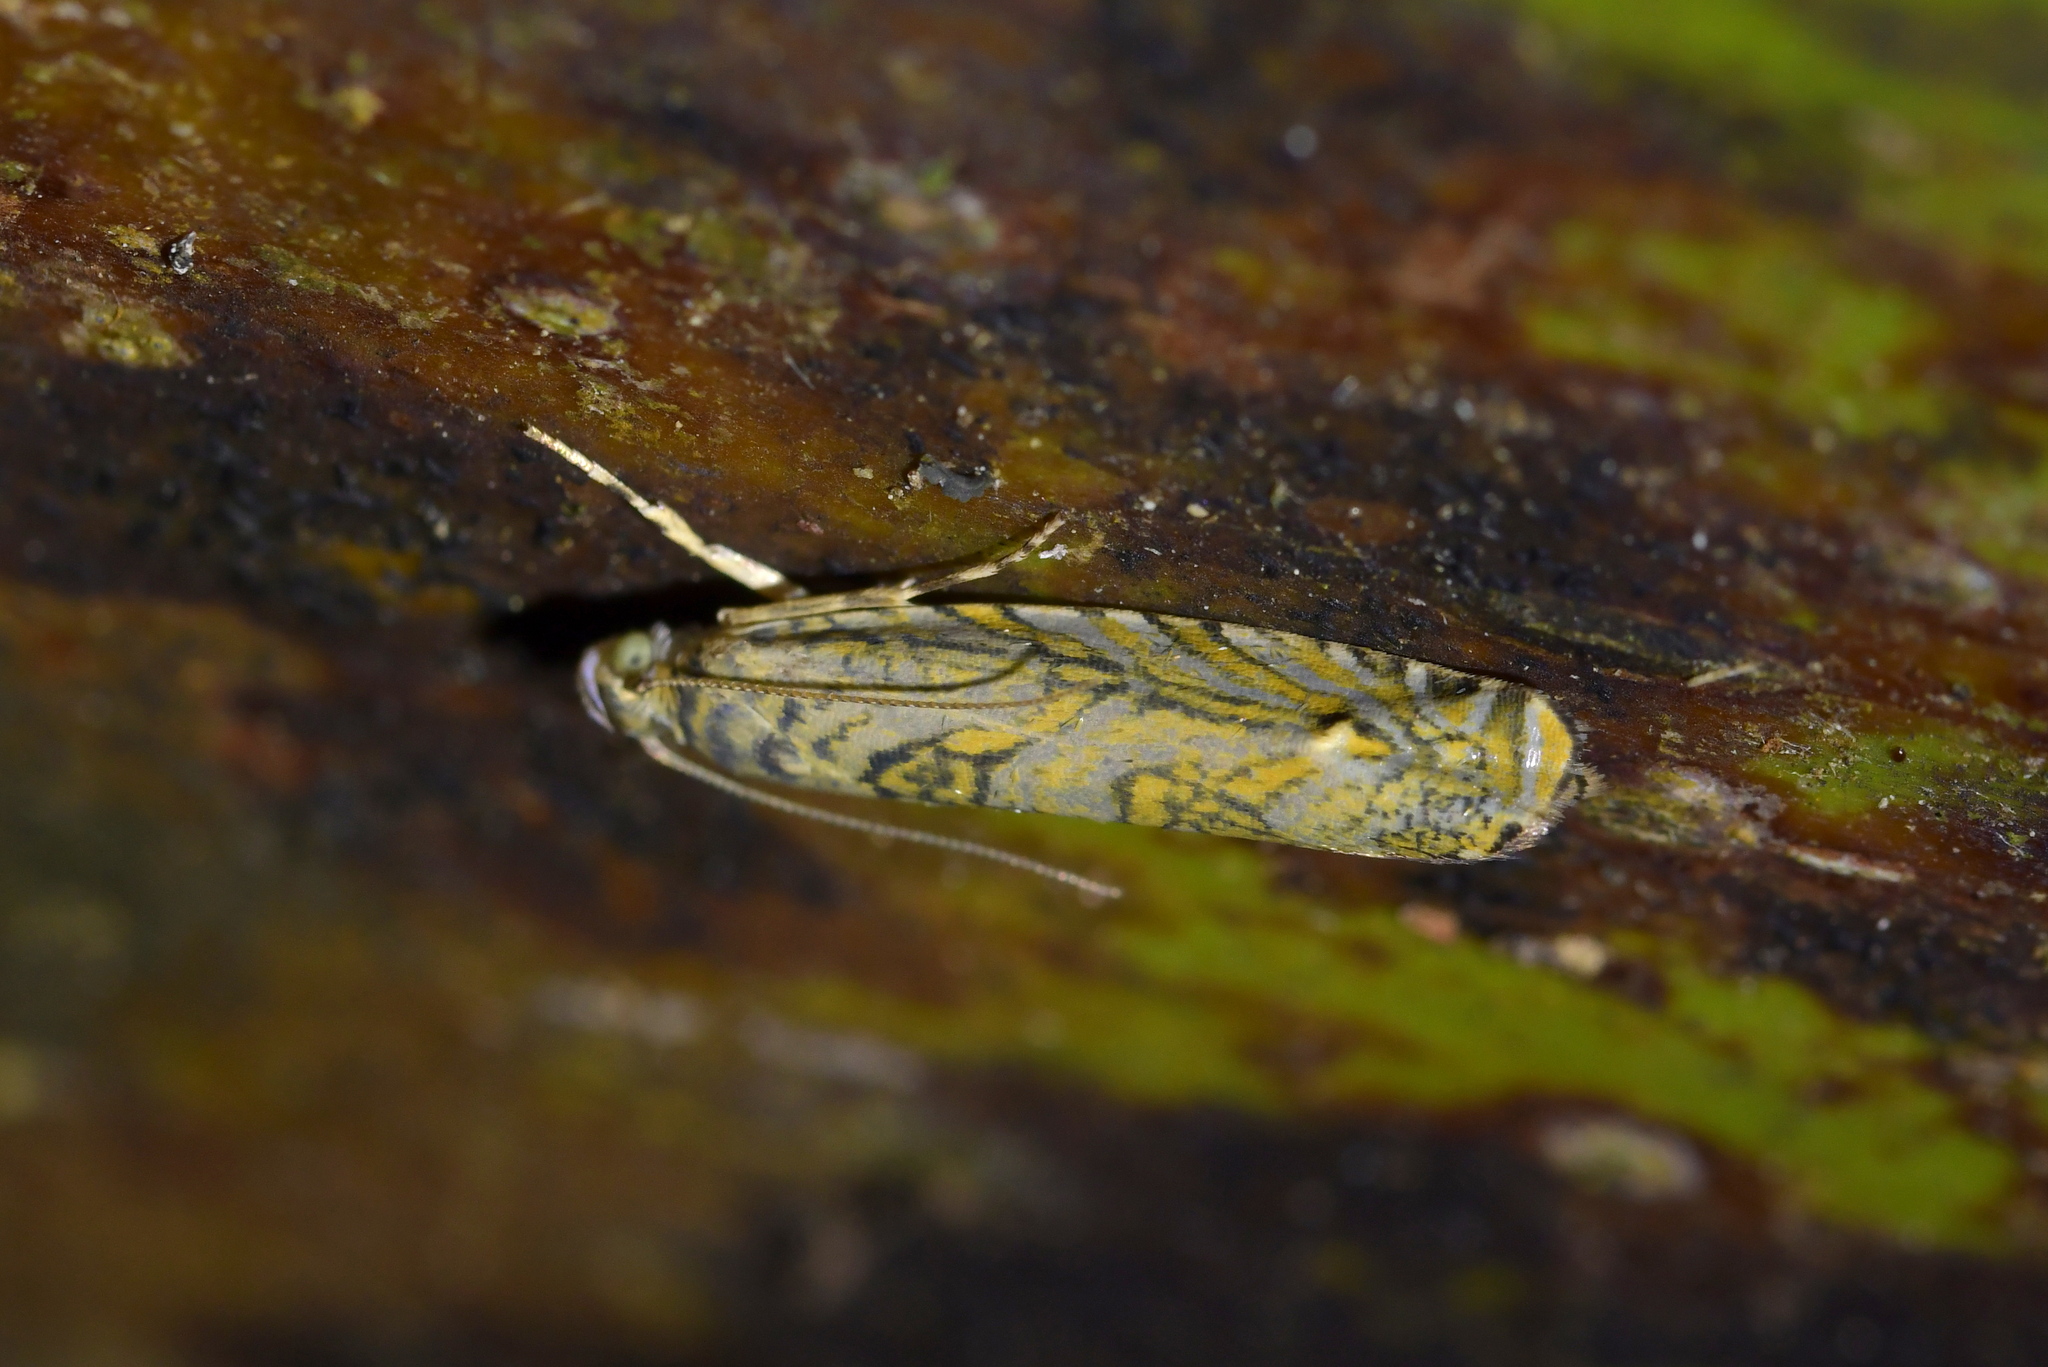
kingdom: Animalia
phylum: Arthropoda
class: Insecta
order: Lepidoptera
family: Plutellidae
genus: Doxophyrtis
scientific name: Doxophyrtis hydrocosma
